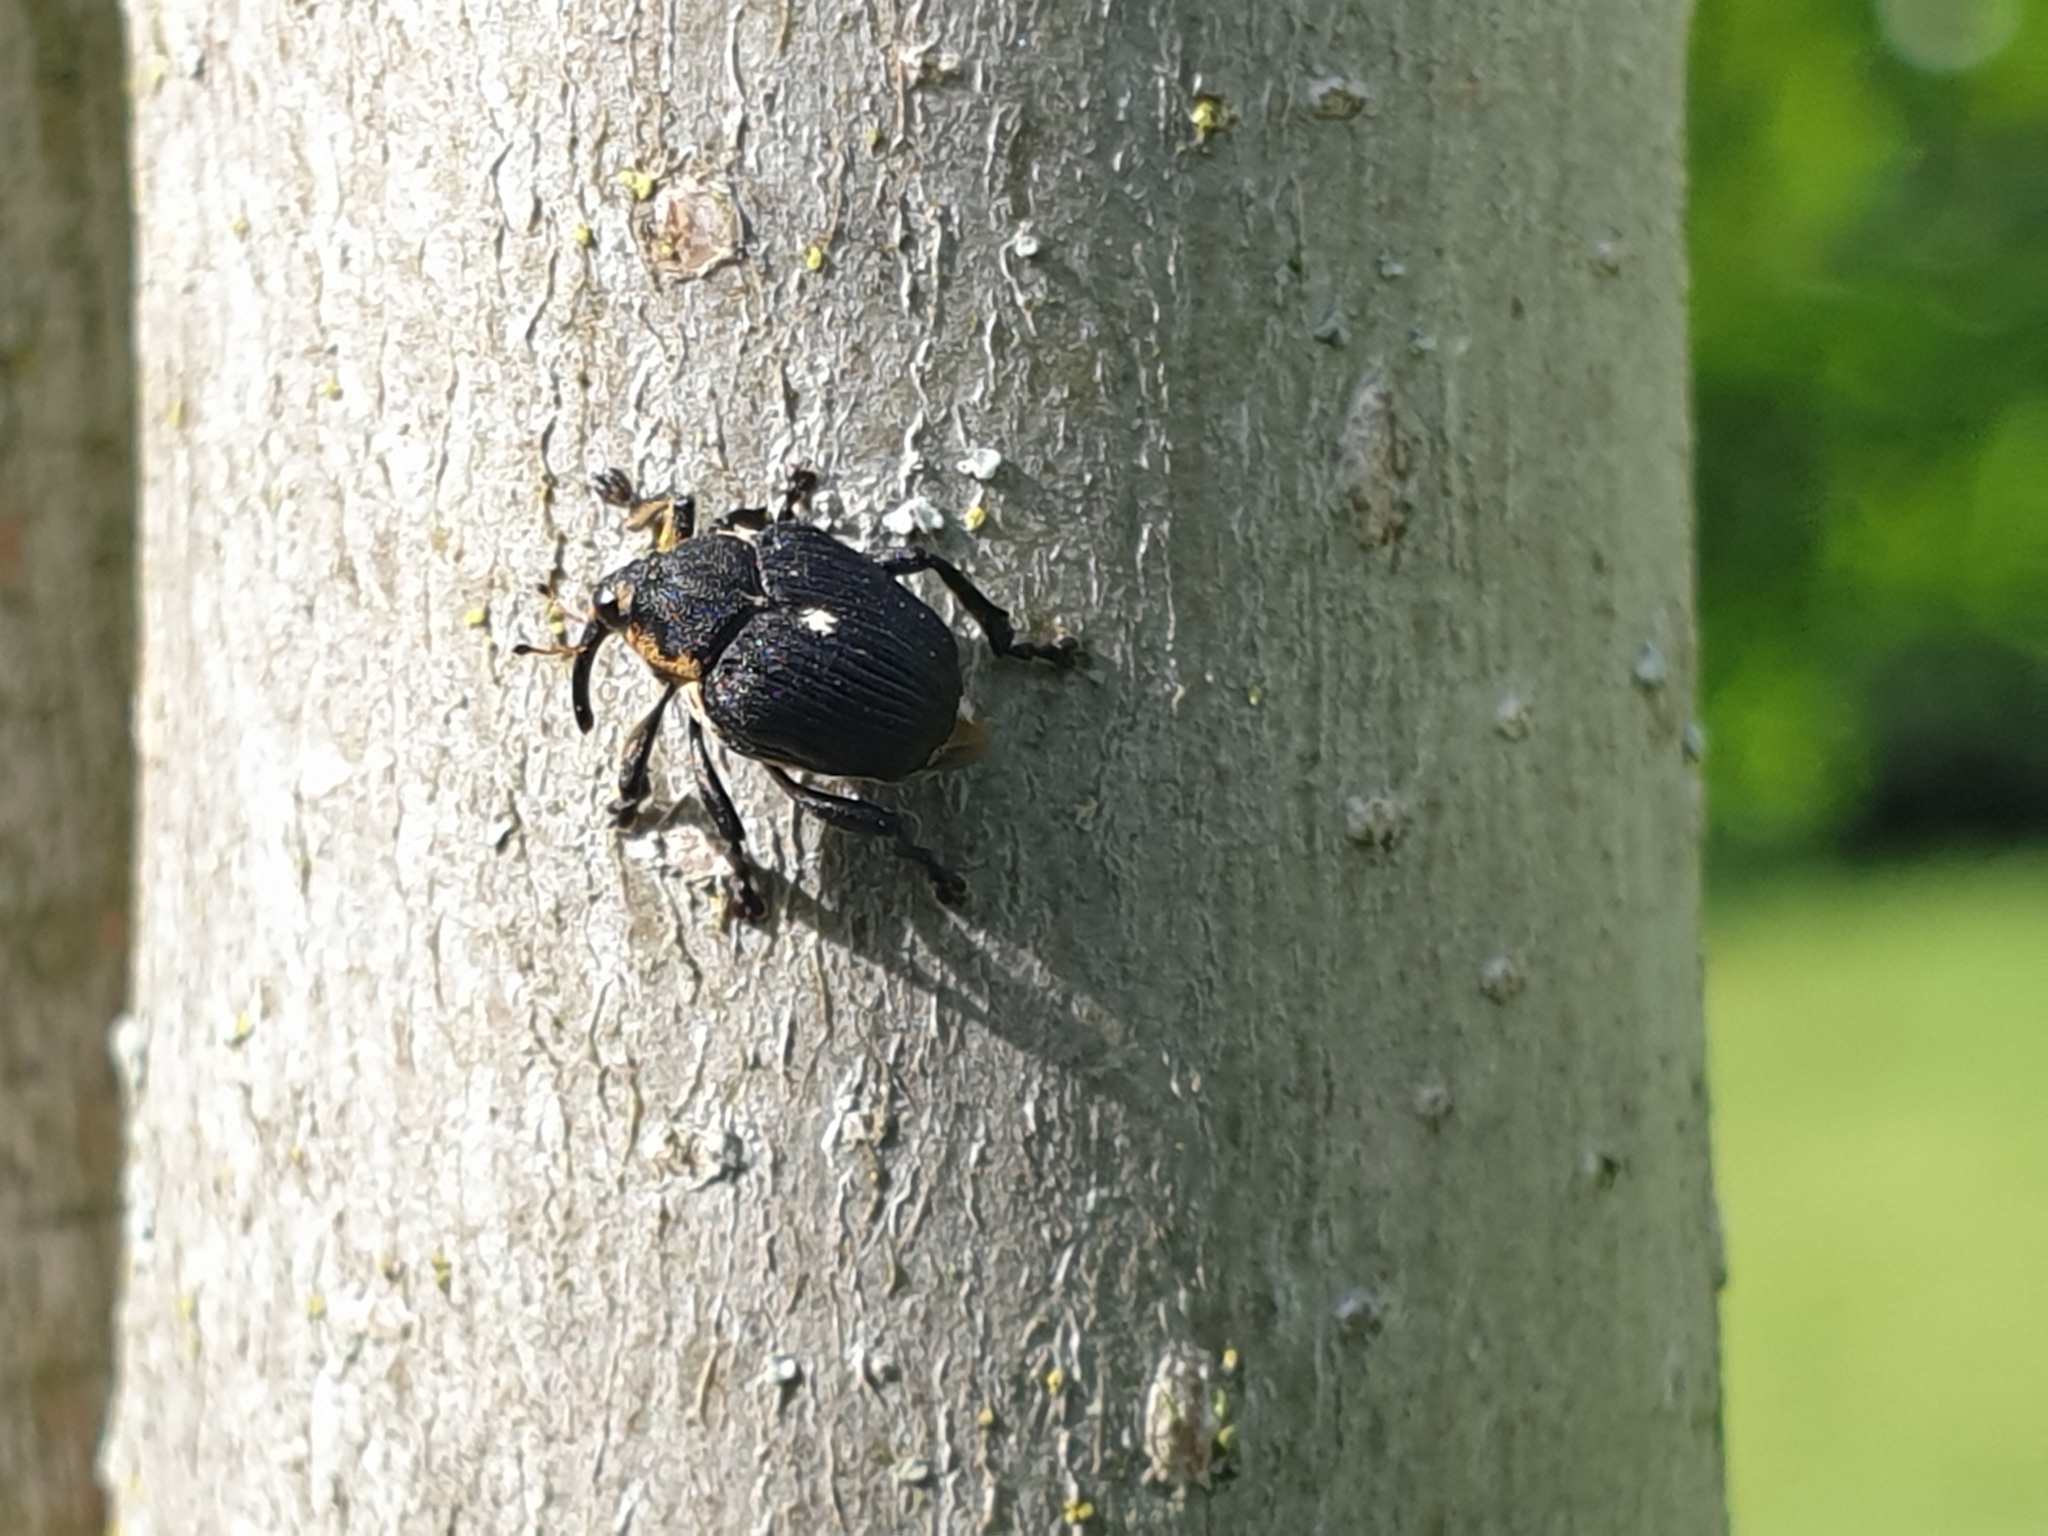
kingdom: Animalia
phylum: Arthropoda
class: Insecta
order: Coleoptera
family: Curculionidae
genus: Mononychus
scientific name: Mononychus punctumalbum
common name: Iris weevil
